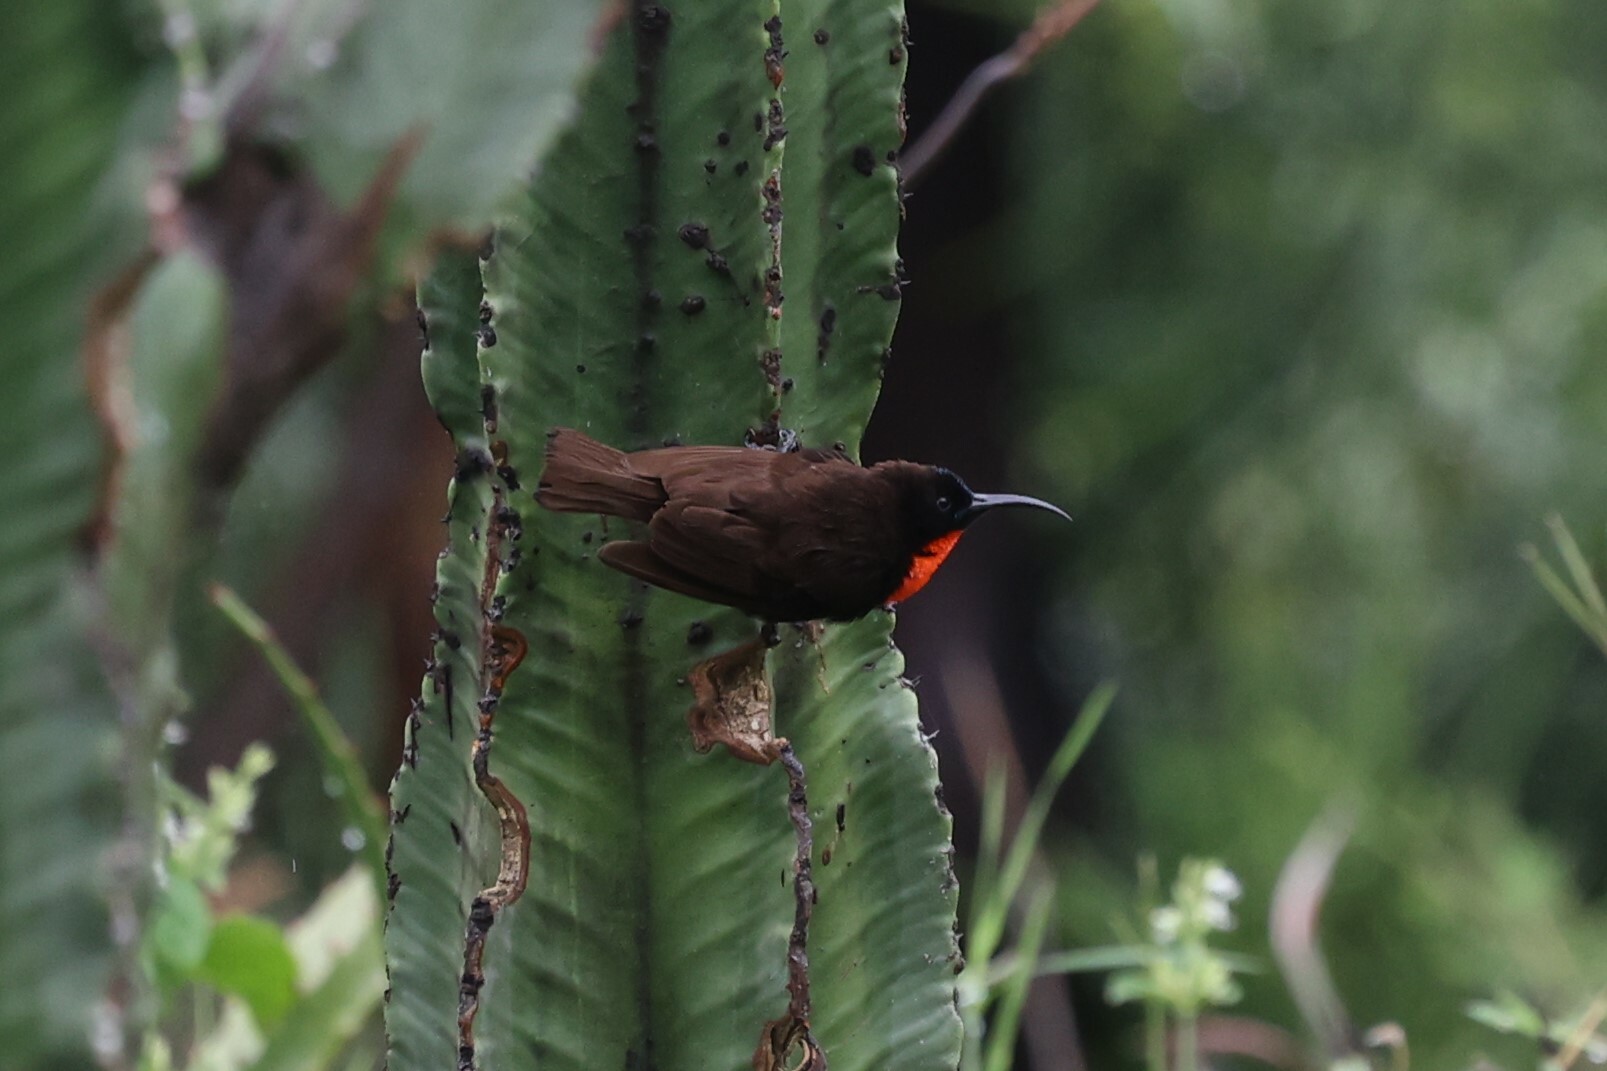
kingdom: Animalia
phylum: Chordata
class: Aves
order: Passeriformes
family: Nectariniidae
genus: Chalcomitra
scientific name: Chalcomitra senegalensis
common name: Scarlet-chested sunbird
